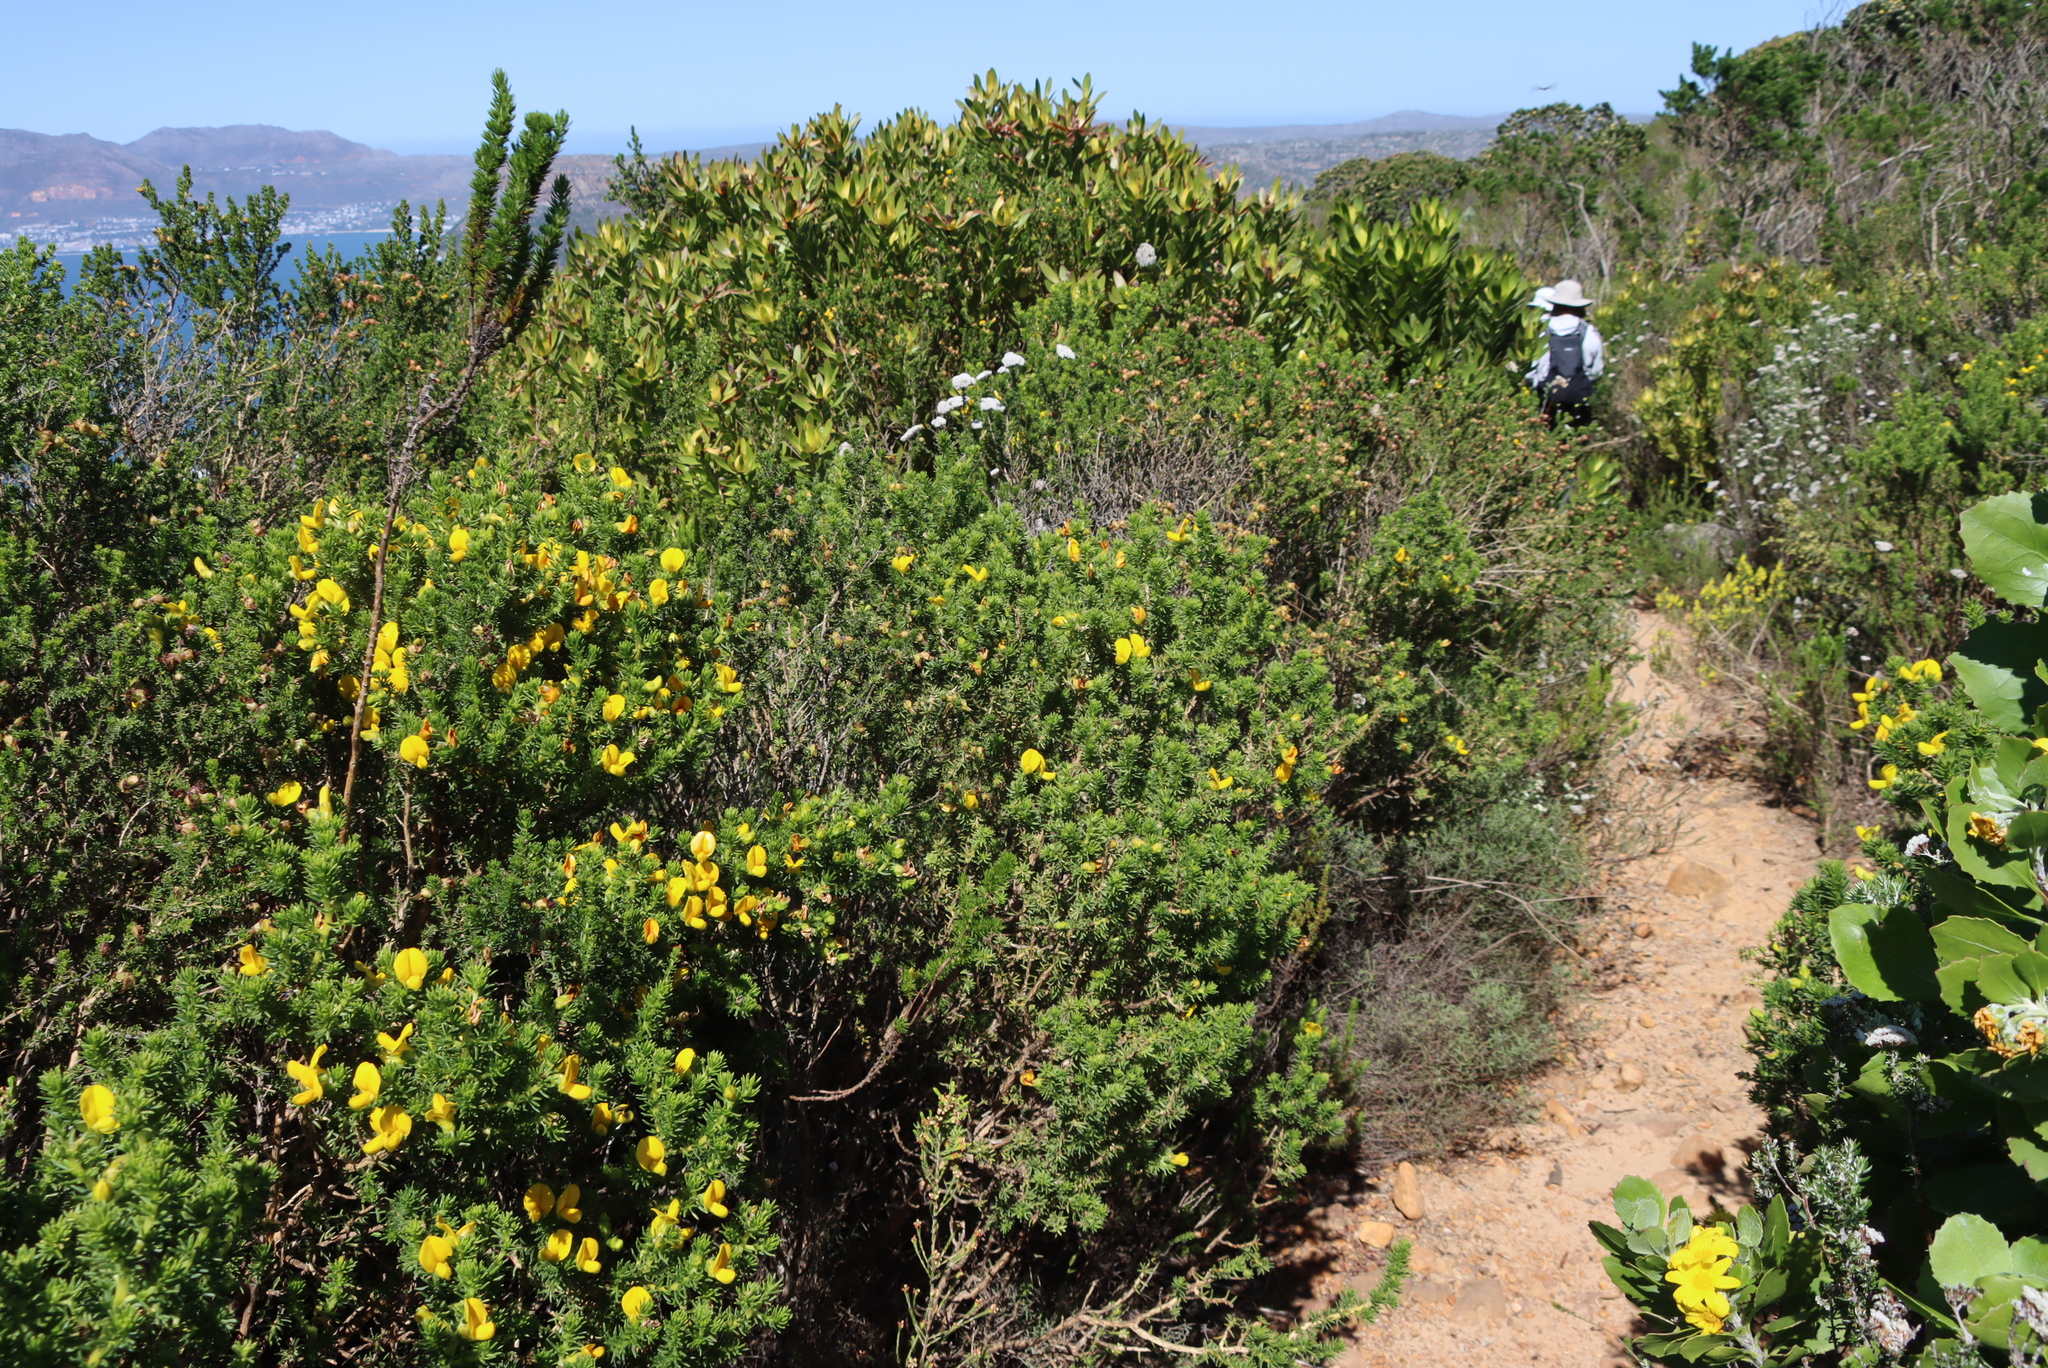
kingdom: Plantae
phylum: Tracheophyta
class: Magnoliopsida
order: Fabales
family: Fabaceae
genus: Aspalathus
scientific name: Aspalathus capensis
